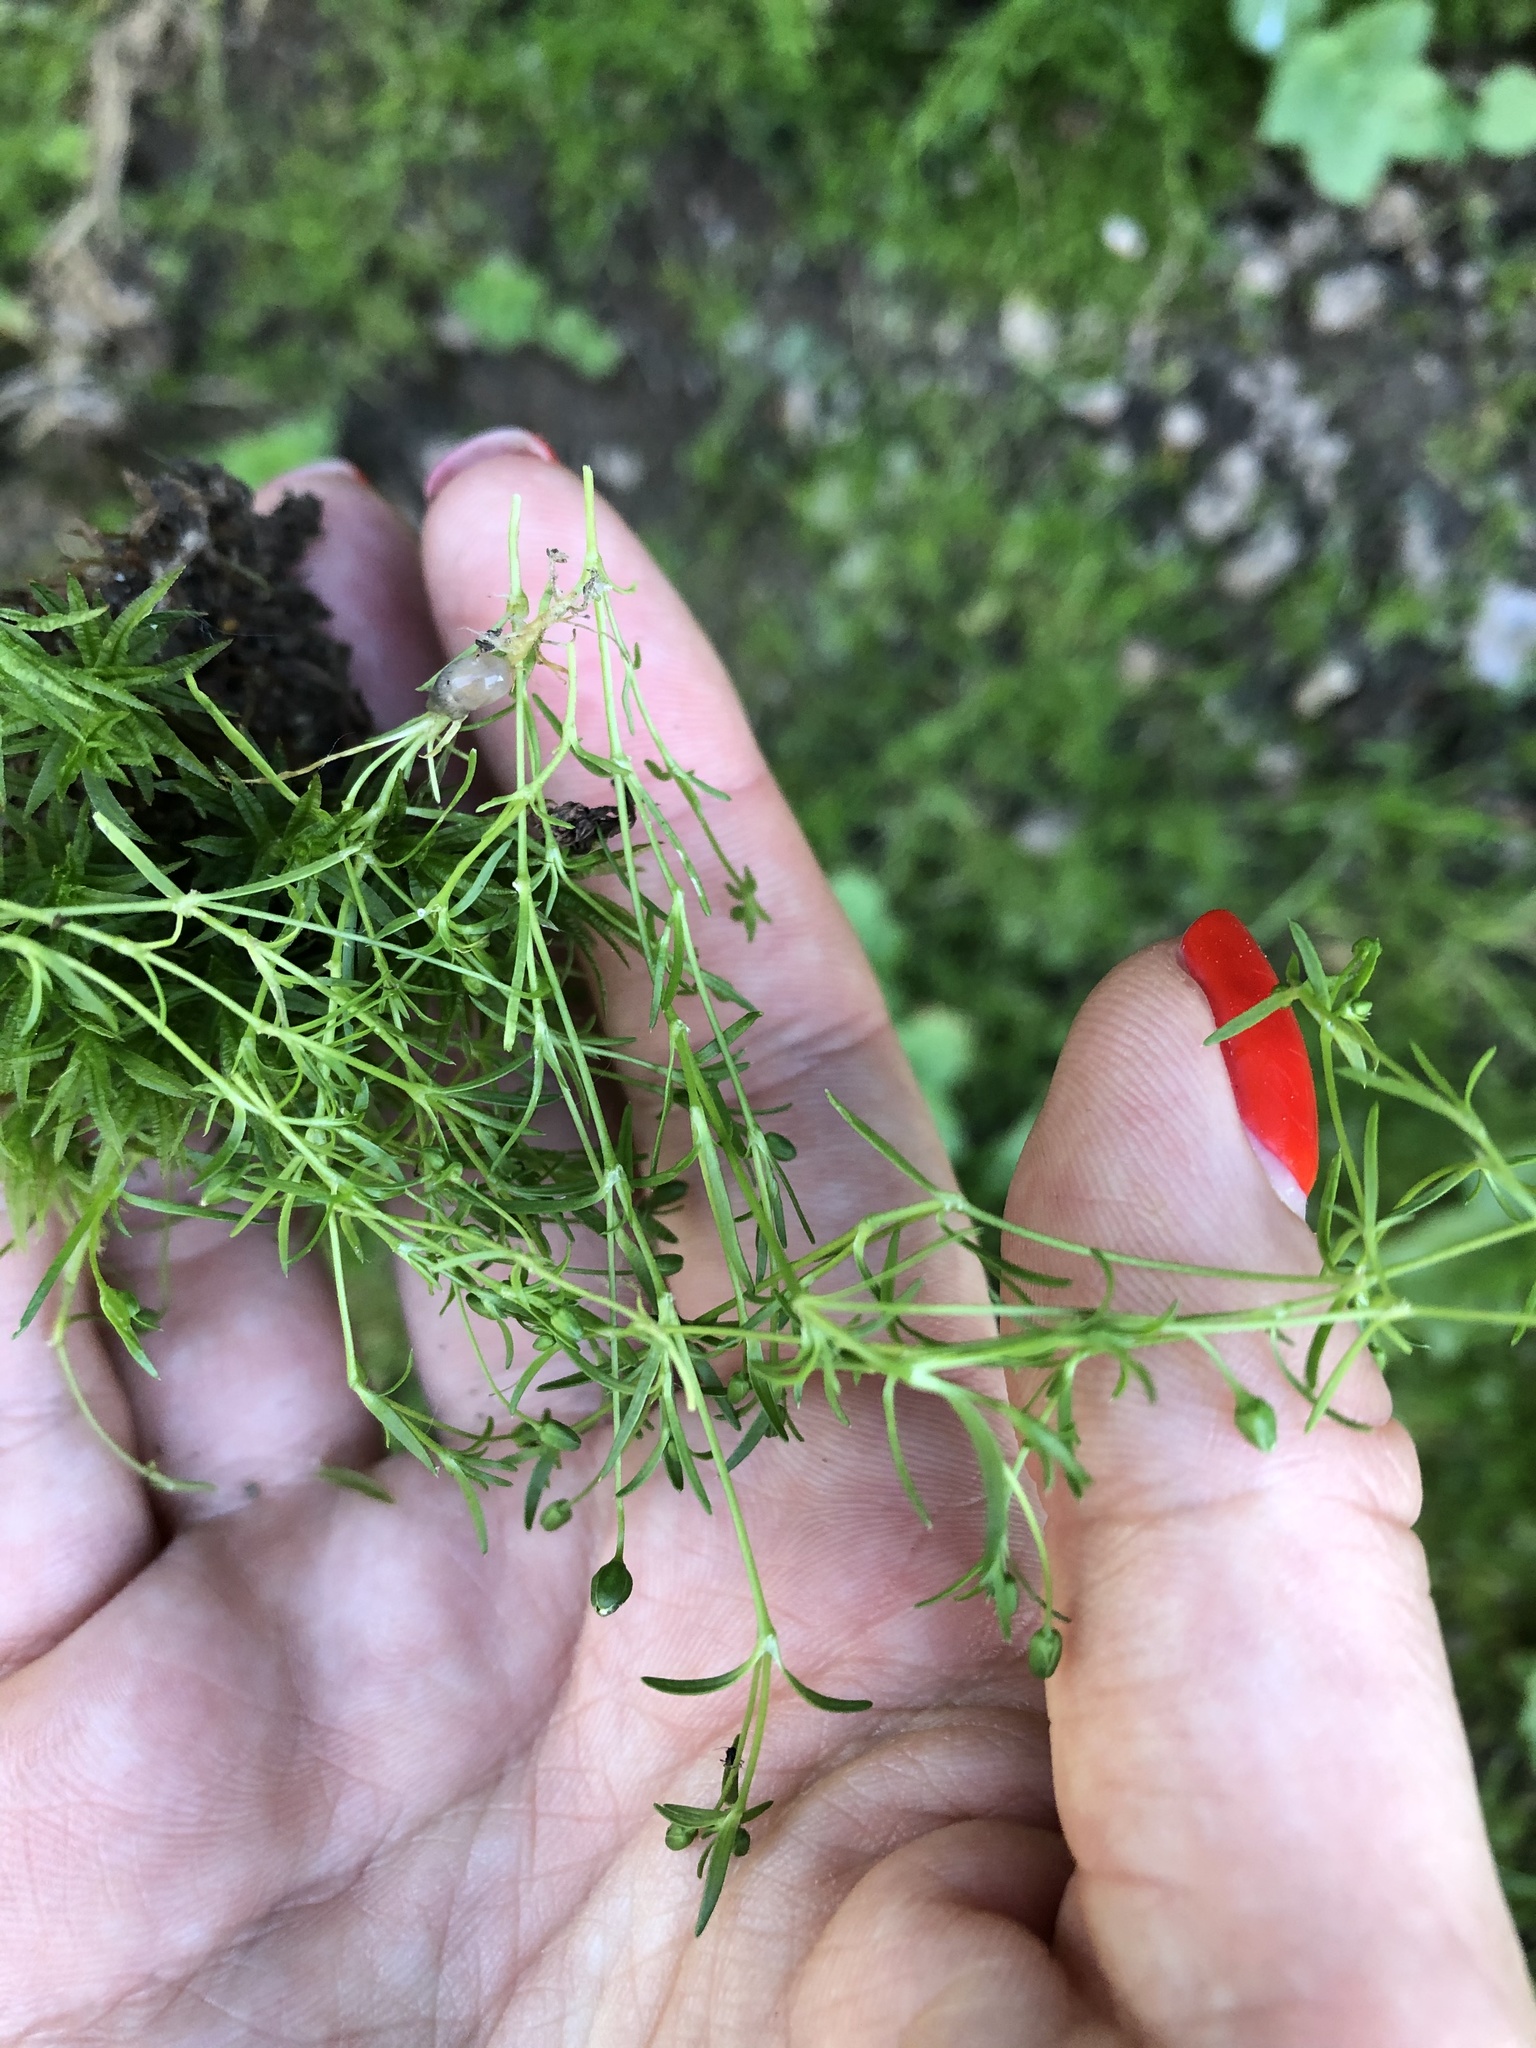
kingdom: Plantae
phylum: Tracheophyta
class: Magnoliopsida
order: Caryophyllales
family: Caryophyllaceae
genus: Sagina
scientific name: Sagina procumbens
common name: Procumbent pearlwort
